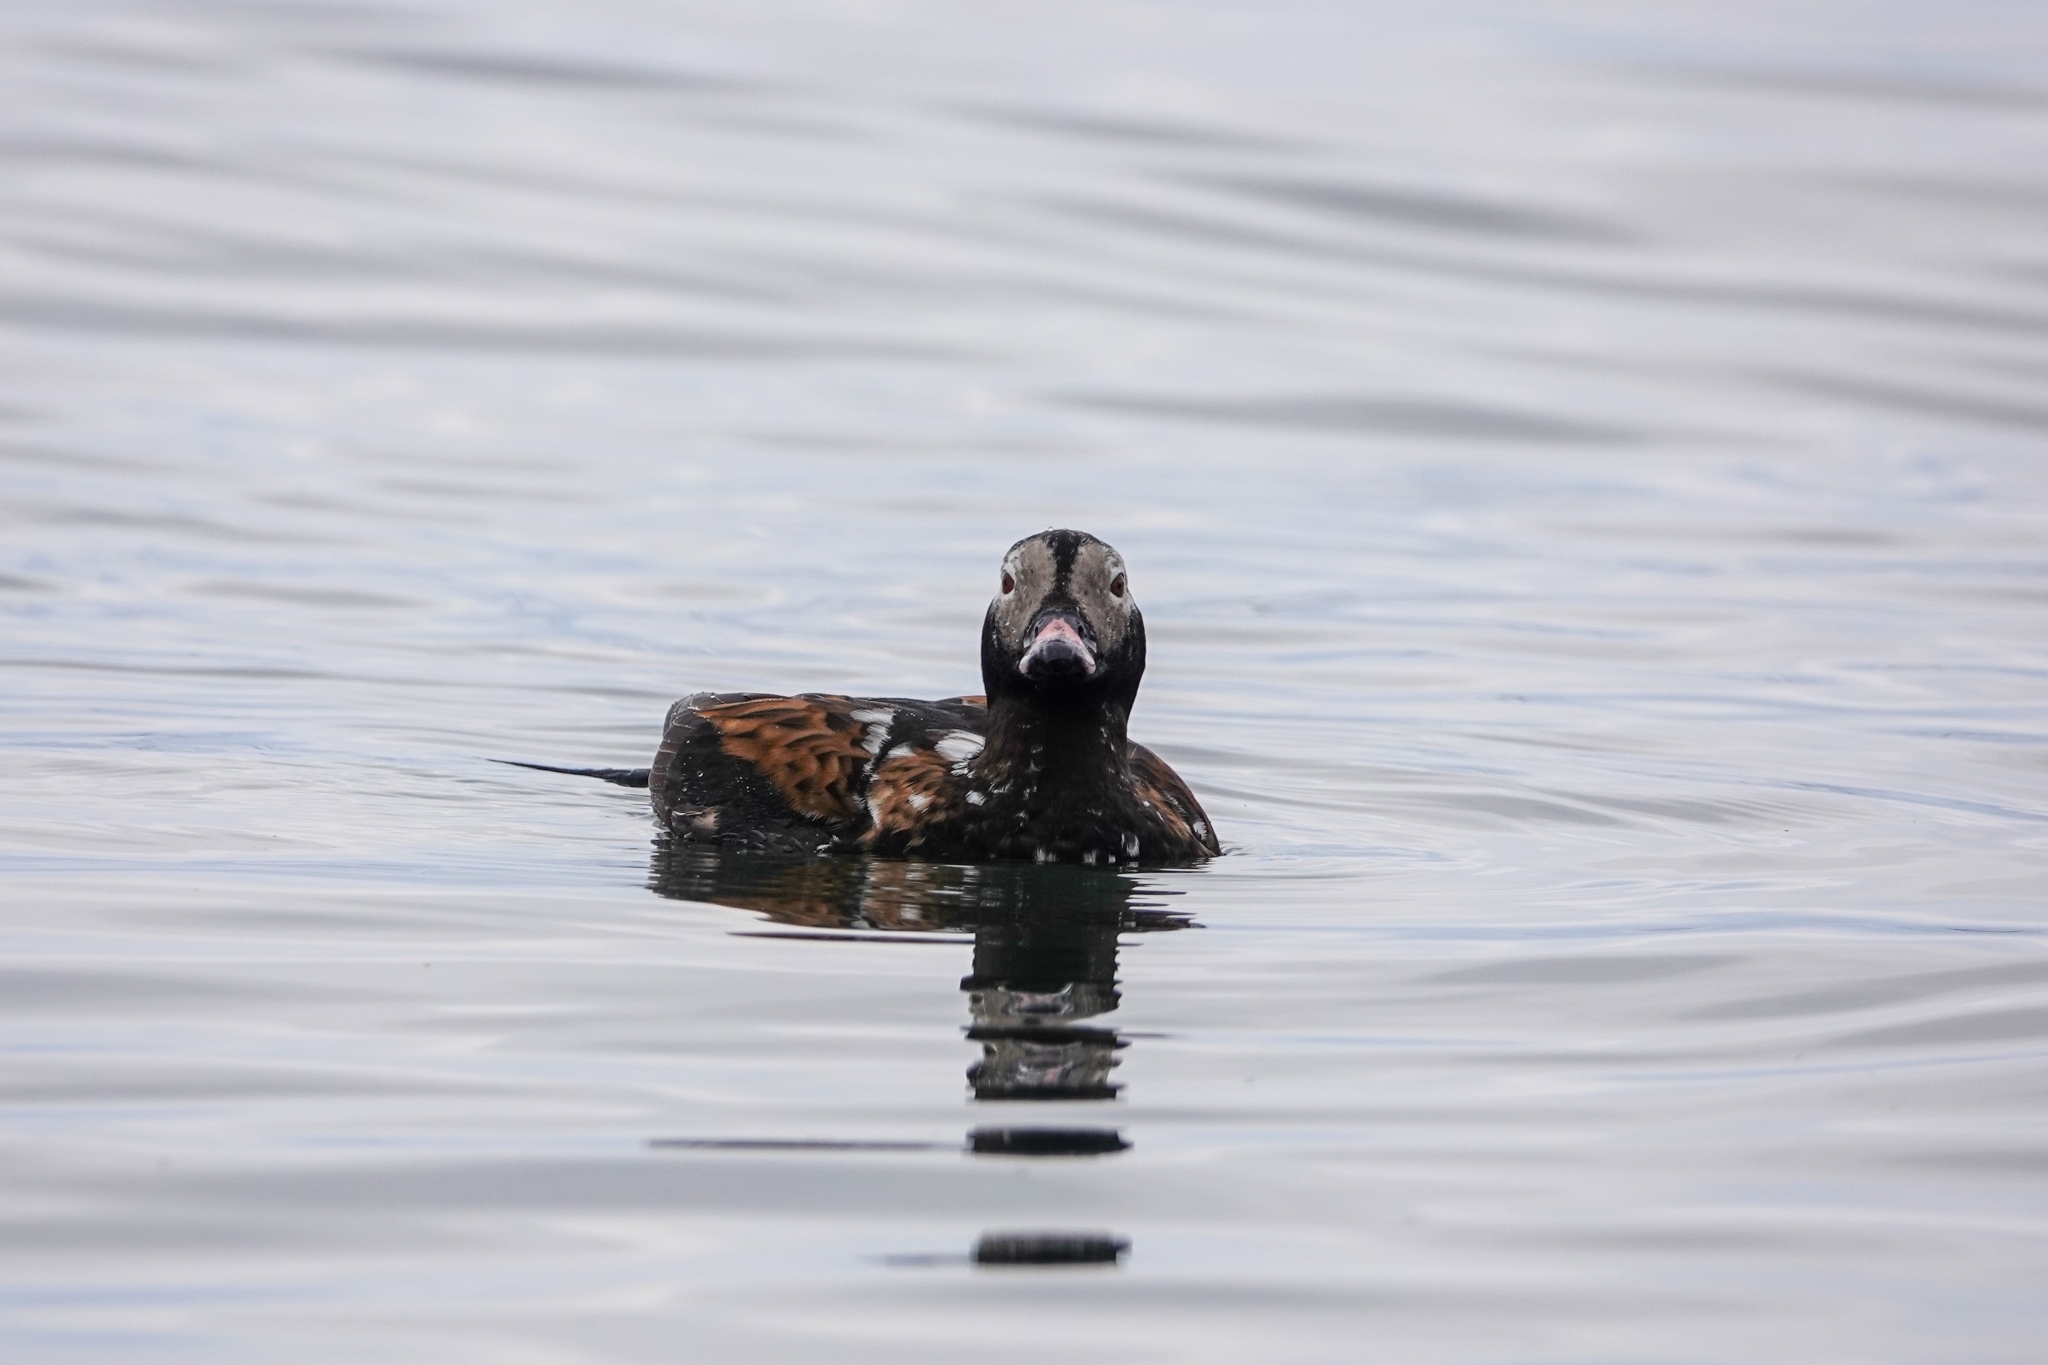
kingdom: Animalia
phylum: Chordata
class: Aves
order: Anseriformes
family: Anatidae
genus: Clangula
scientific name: Clangula hyemalis
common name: Long-tailed duck
